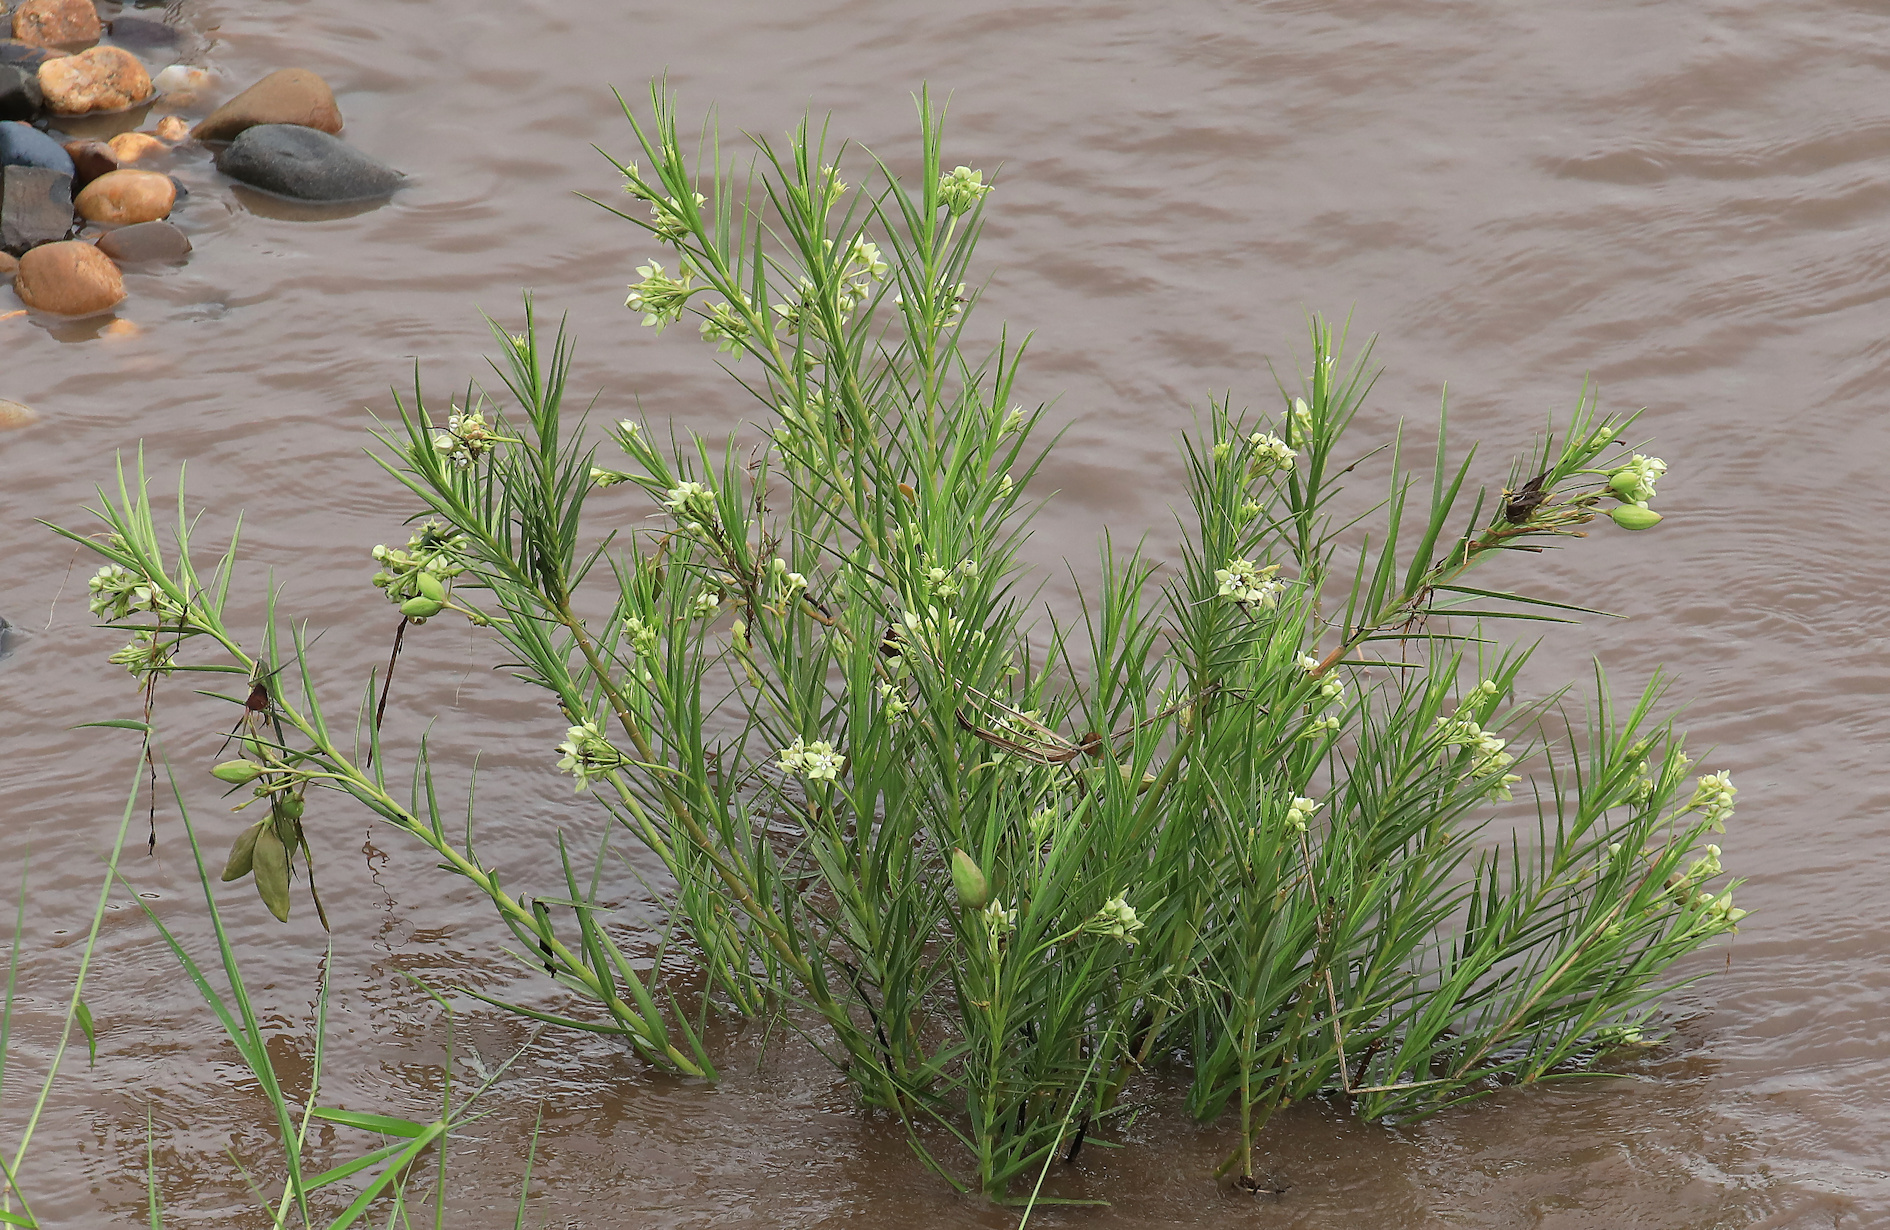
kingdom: Plantae
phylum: Tracheophyta
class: Magnoliopsida
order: Gentianales
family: Apocynaceae
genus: Kanahia
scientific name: Kanahia laniflora
